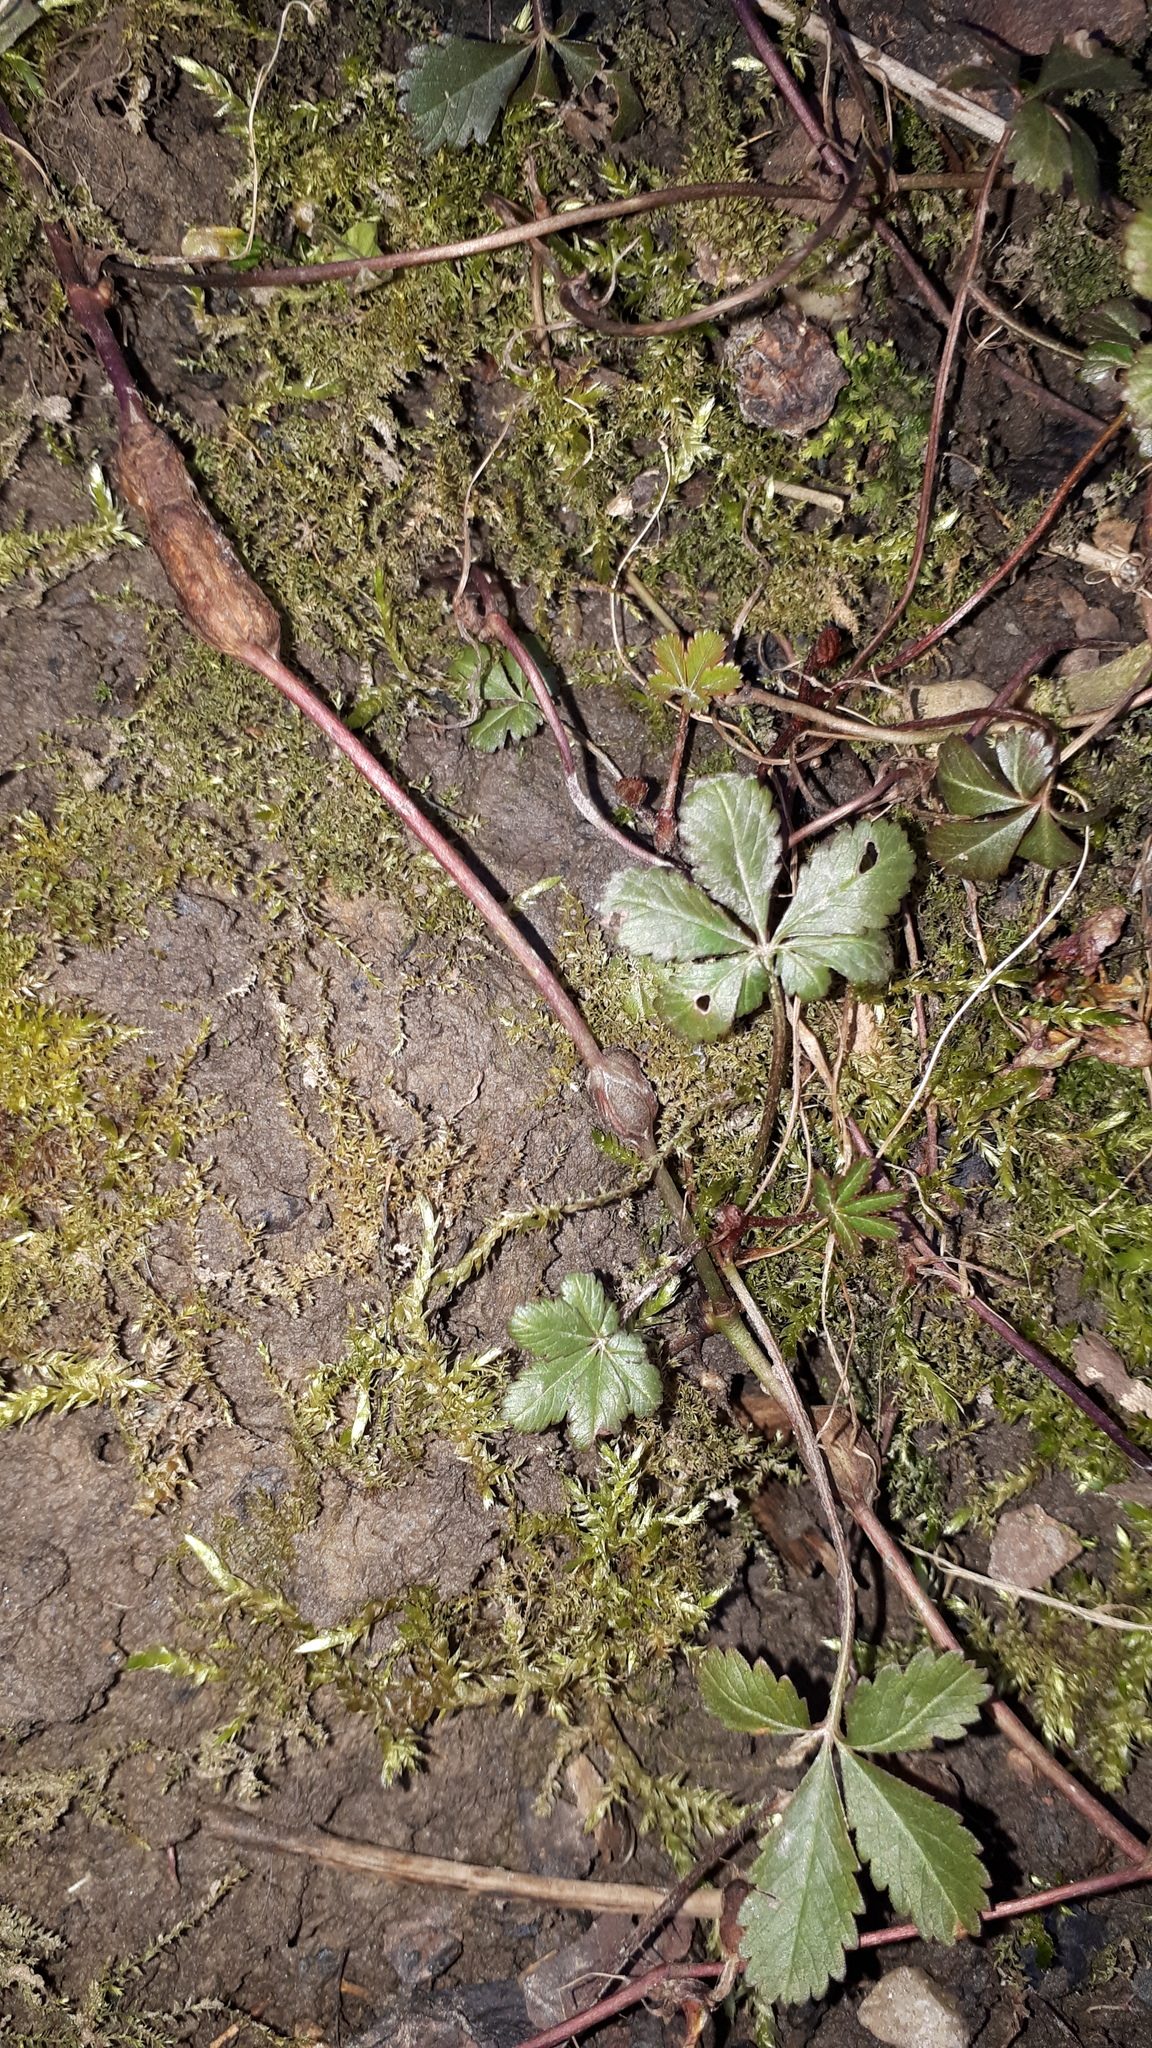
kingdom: Animalia
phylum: Arthropoda
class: Insecta
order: Hymenoptera
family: Cynipidae
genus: Xestophanes
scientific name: Xestophanes potentillae
